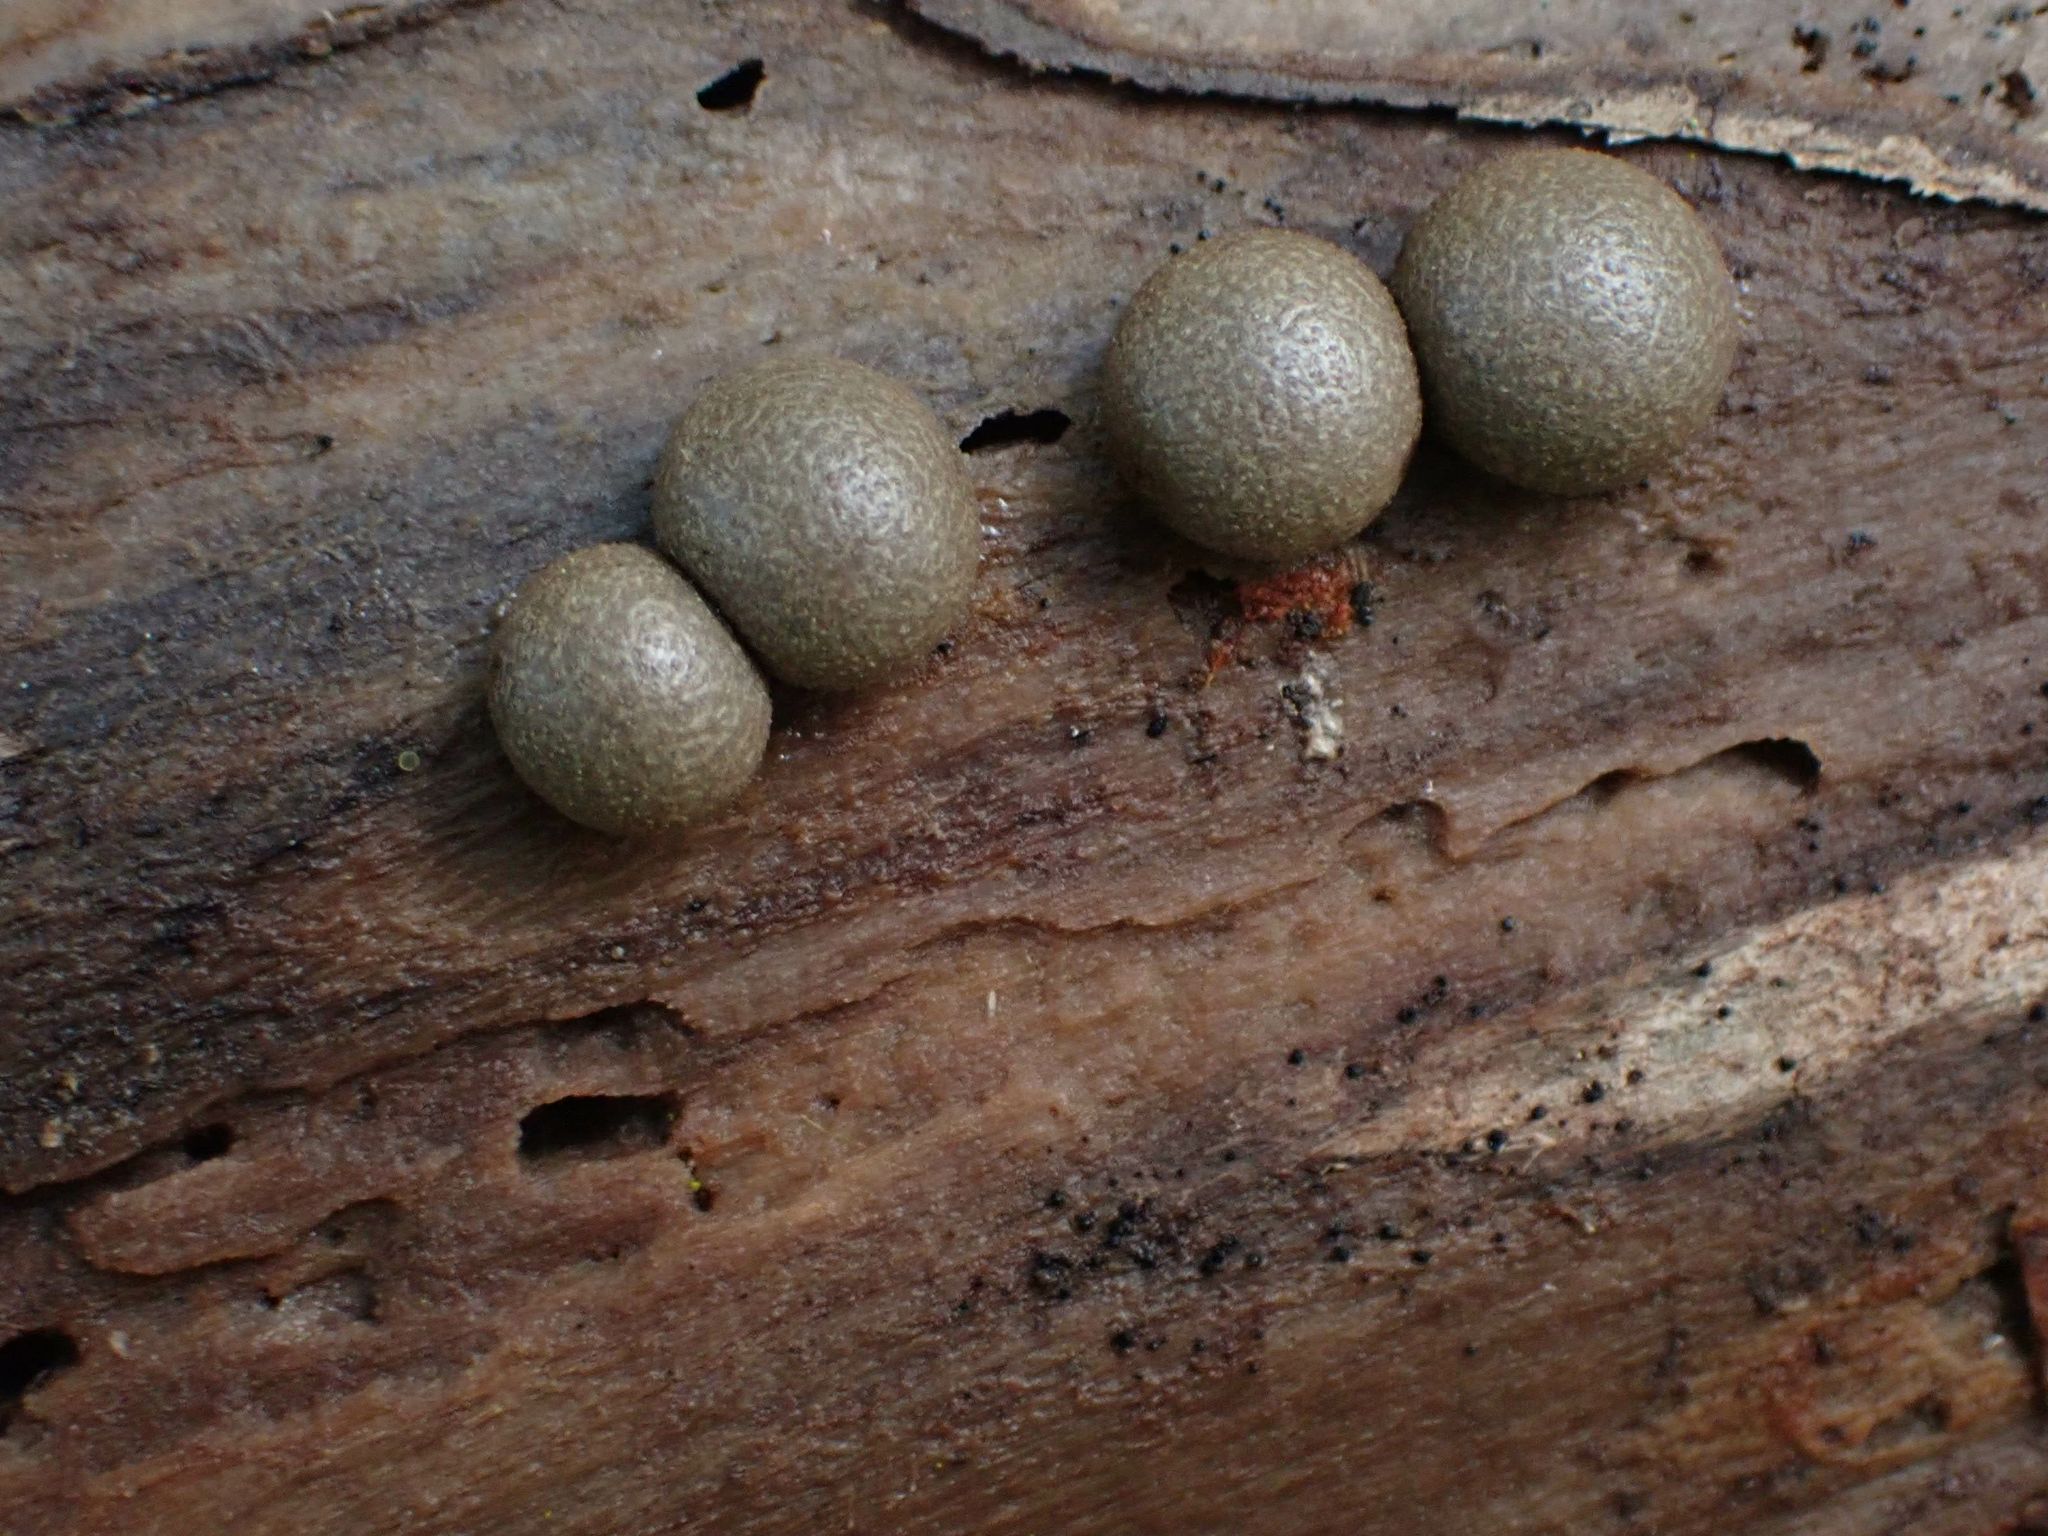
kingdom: Protozoa
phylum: Mycetozoa
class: Myxomycetes
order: Cribrariales
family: Tubiferaceae
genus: Lycogala
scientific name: Lycogala epidendrum
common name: Wolf's milk
